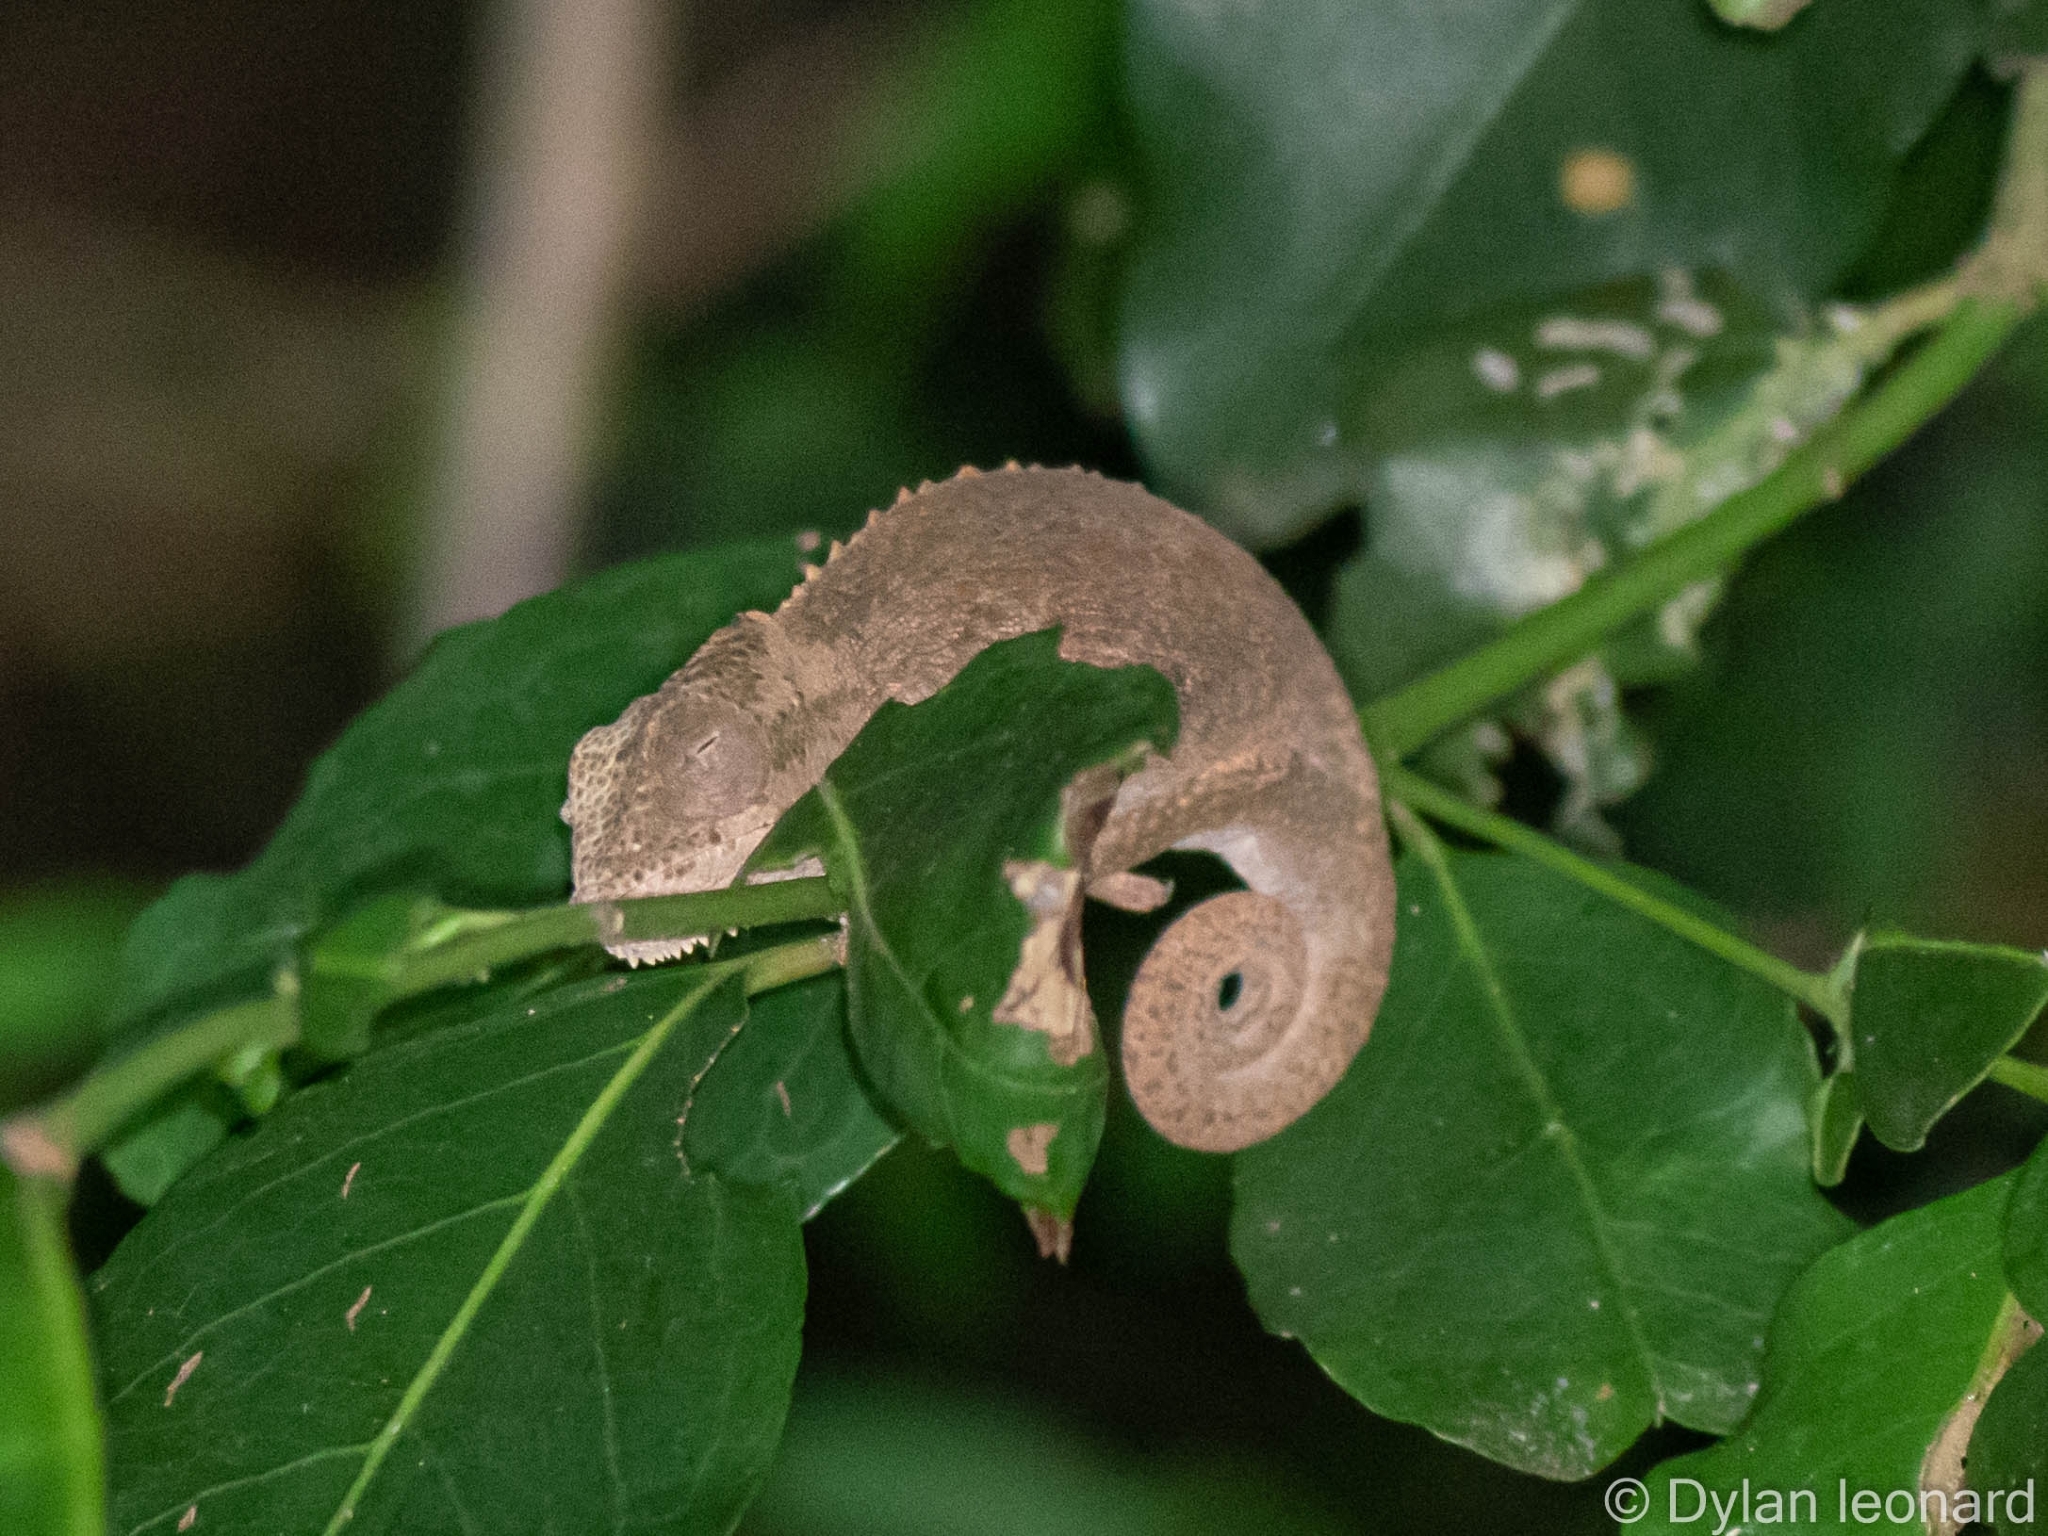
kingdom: Animalia
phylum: Chordata
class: Squamata
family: Chamaeleonidae
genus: Bradypodion
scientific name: Bradypodion setaroi
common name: Setaro's dwarf chameleon
